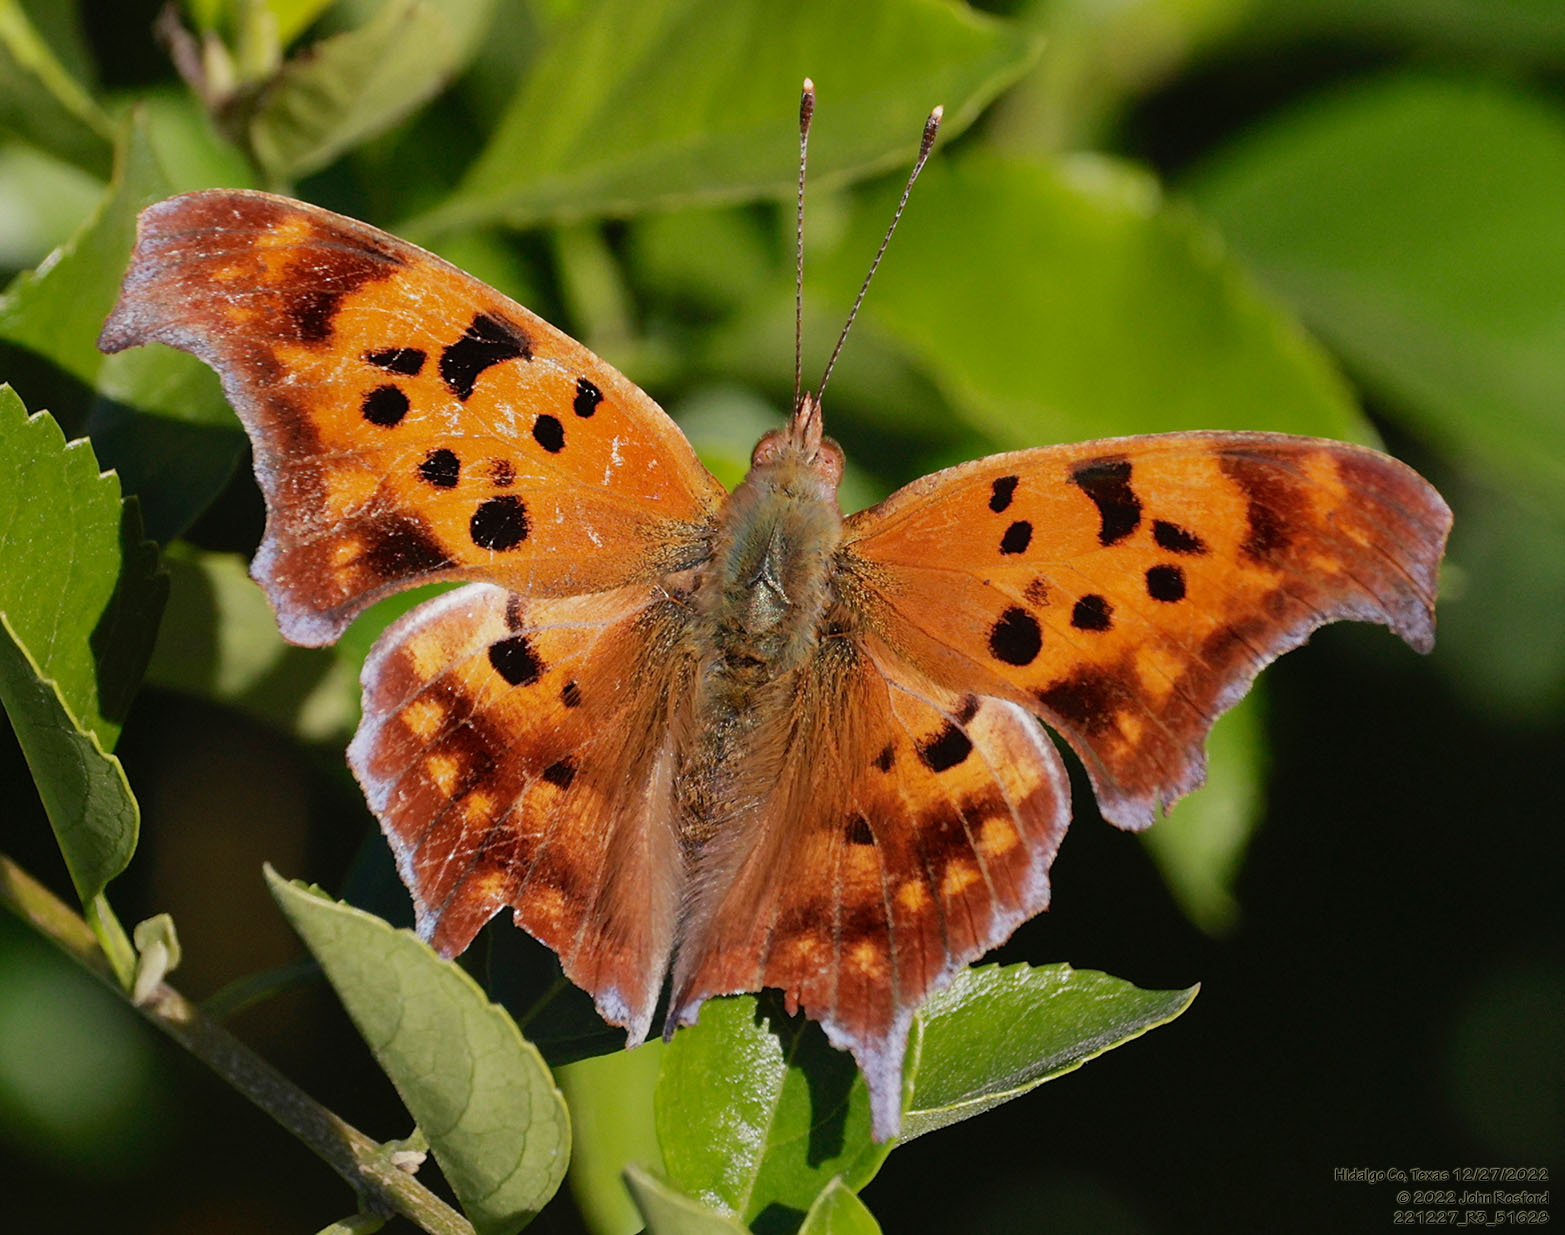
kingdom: Animalia
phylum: Arthropoda
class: Insecta
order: Lepidoptera
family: Nymphalidae
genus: Polygonia
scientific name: Polygonia interrogationis
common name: Question mark
